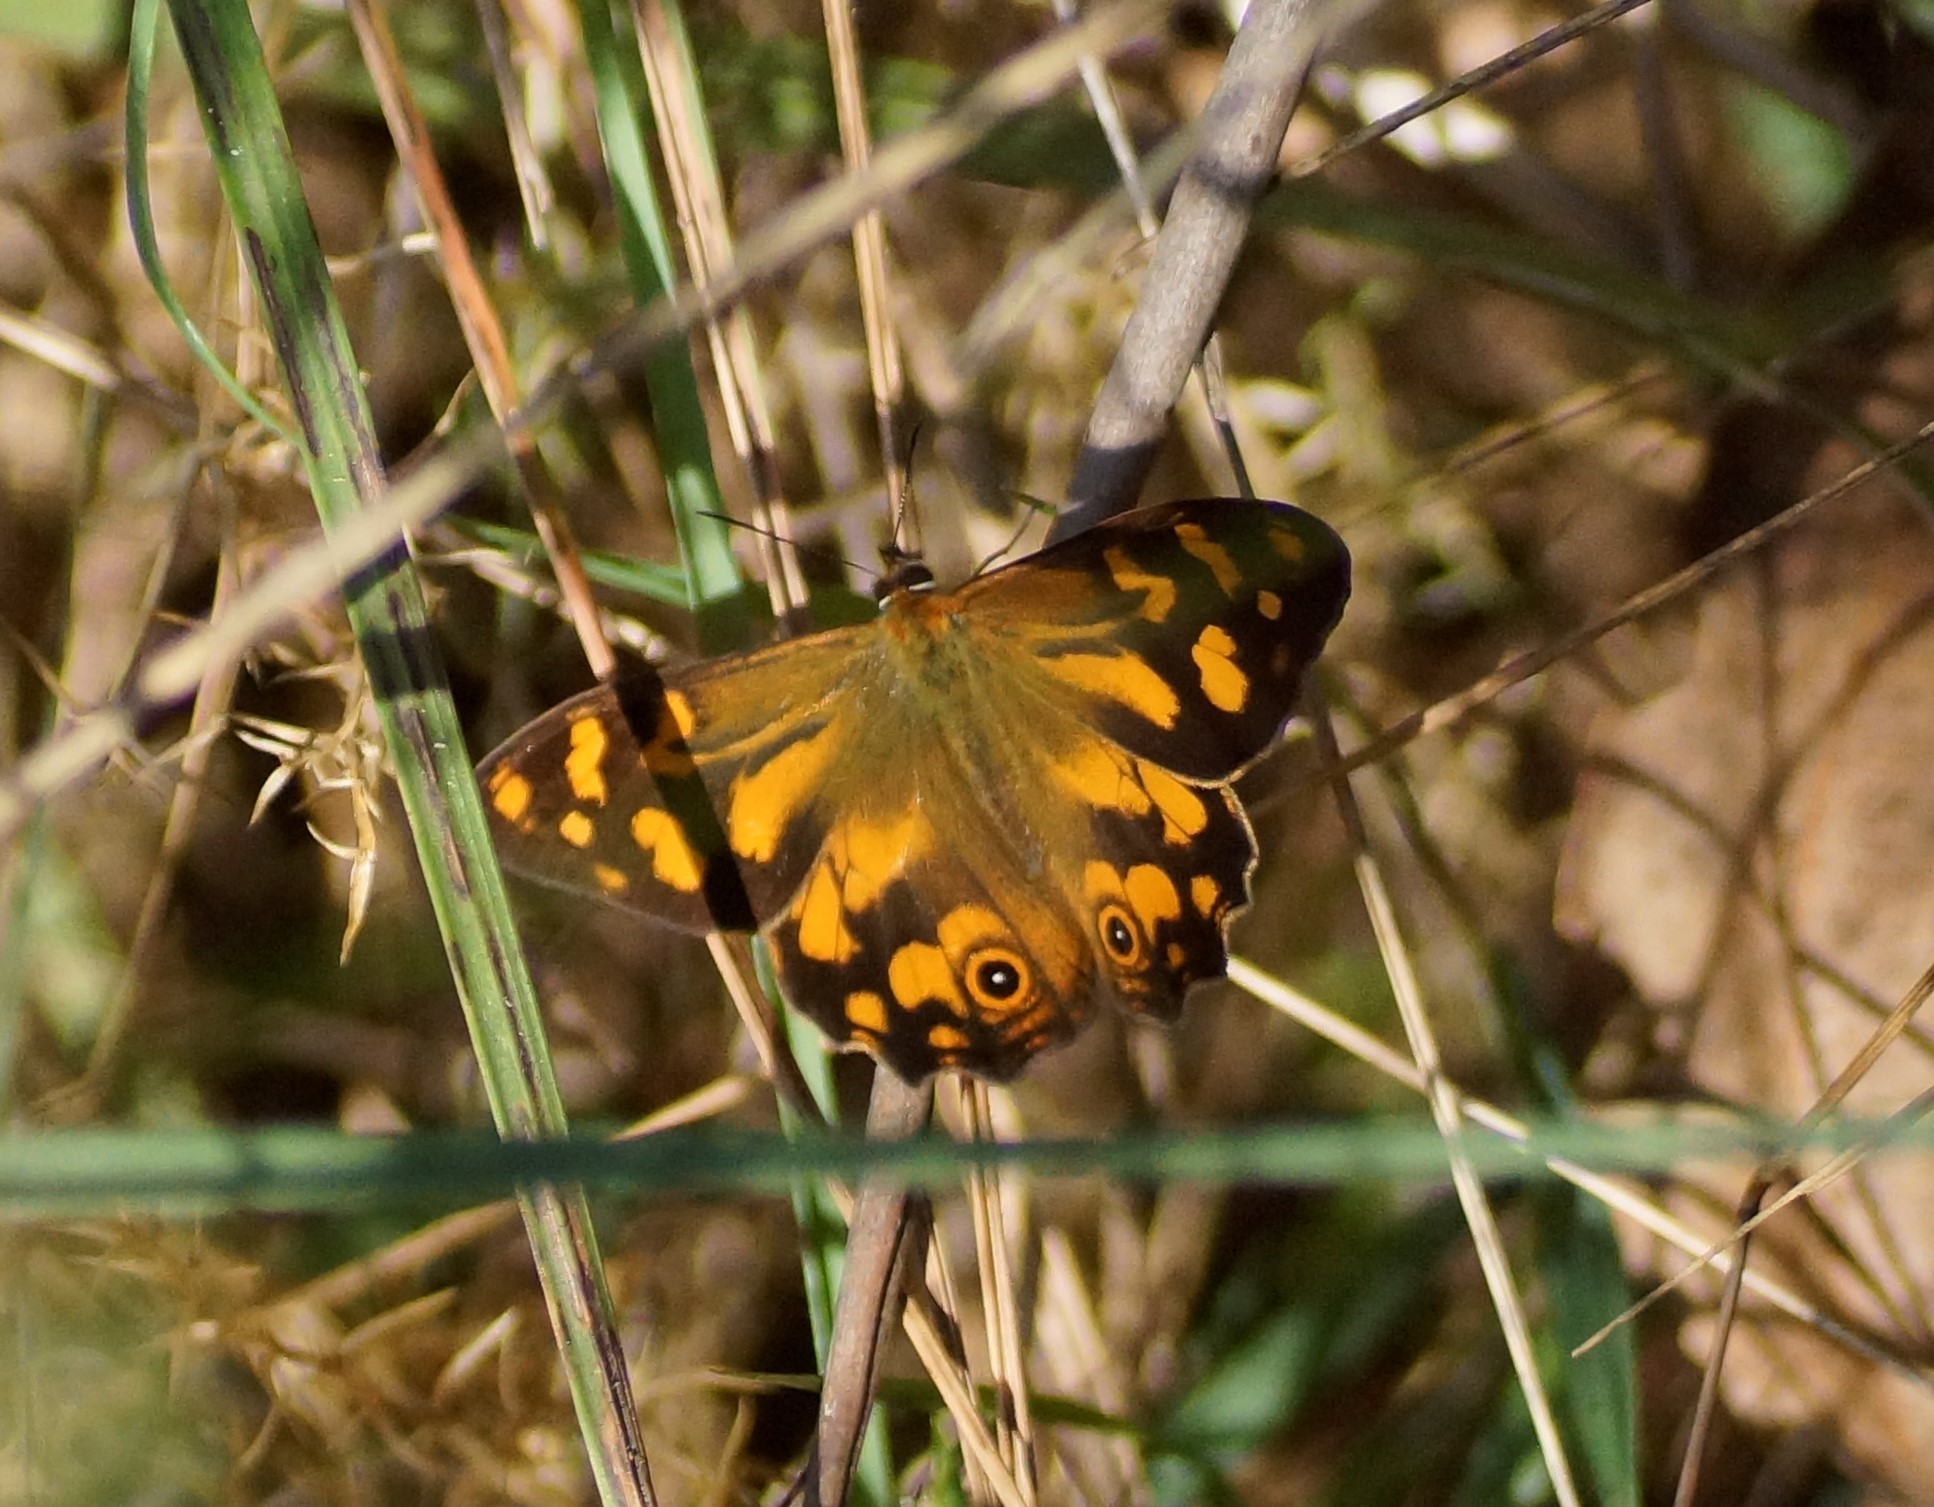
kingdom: Animalia
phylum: Arthropoda
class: Insecta
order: Lepidoptera
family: Nymphalidae
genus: Heteronympha
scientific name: Heteronympha banksii
